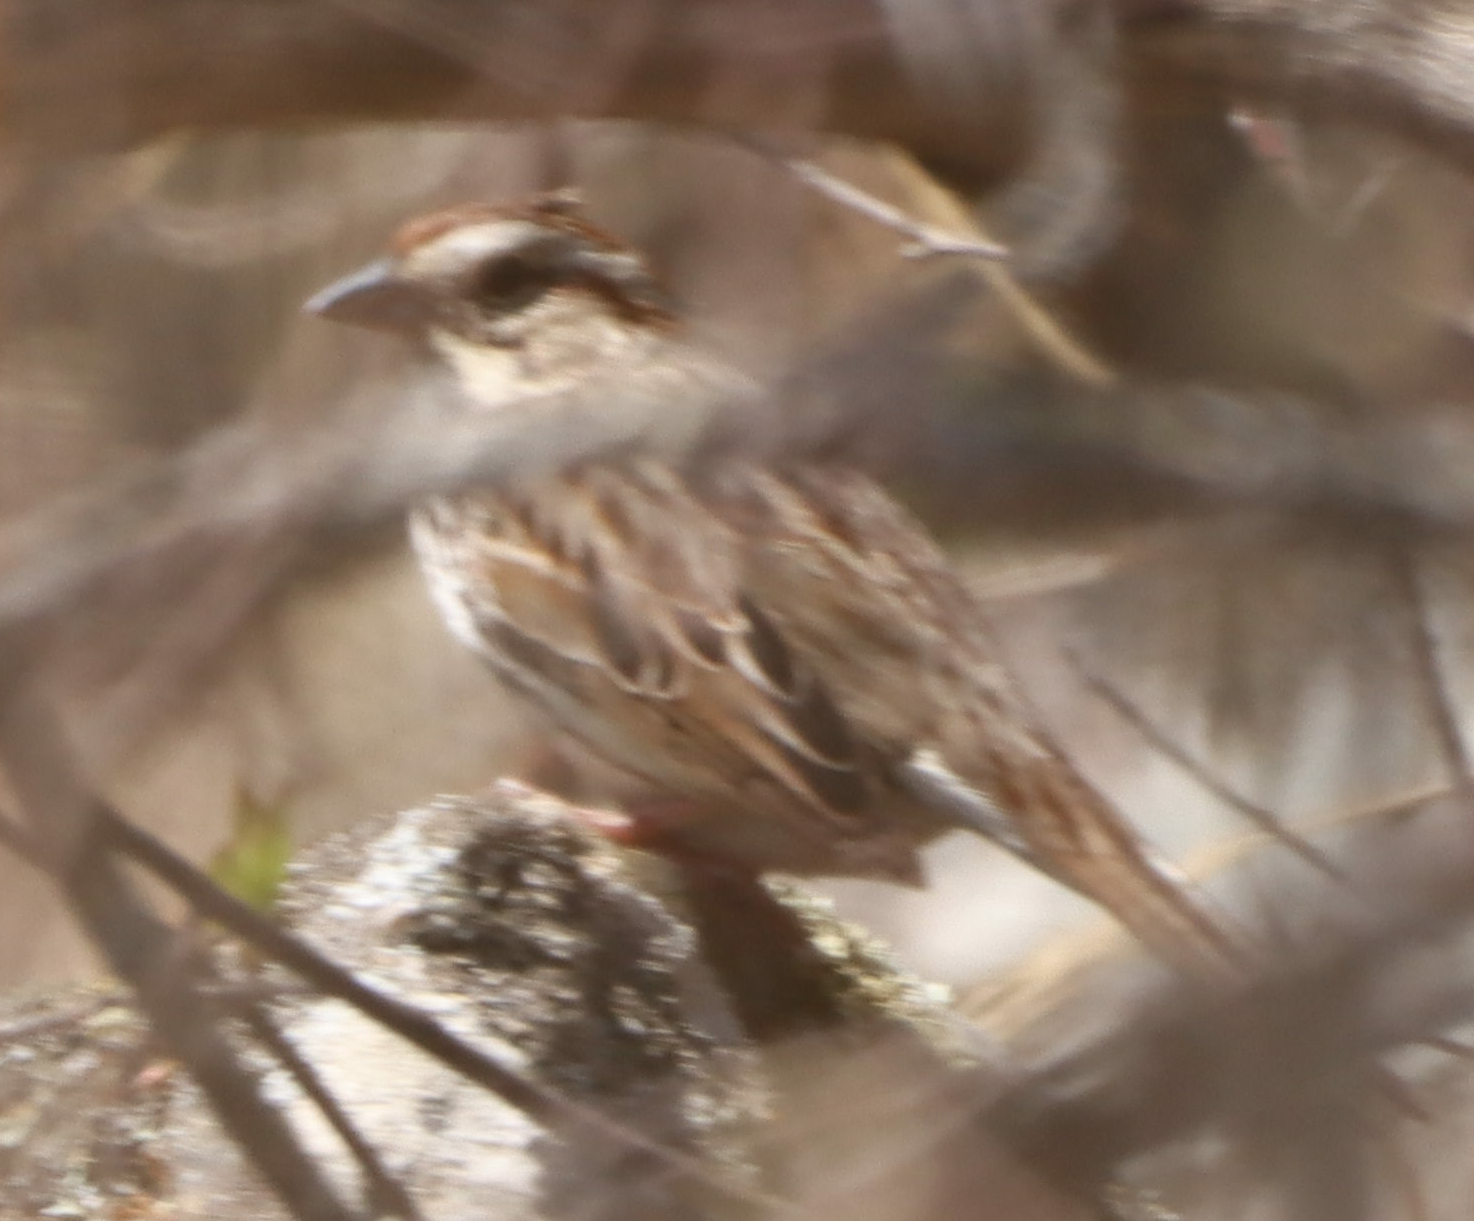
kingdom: Animalia
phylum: Chordata
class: Aves
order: Passeriformes
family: Passerellidae
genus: Melospiza
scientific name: Melospiza melodia
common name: Song sparrow
